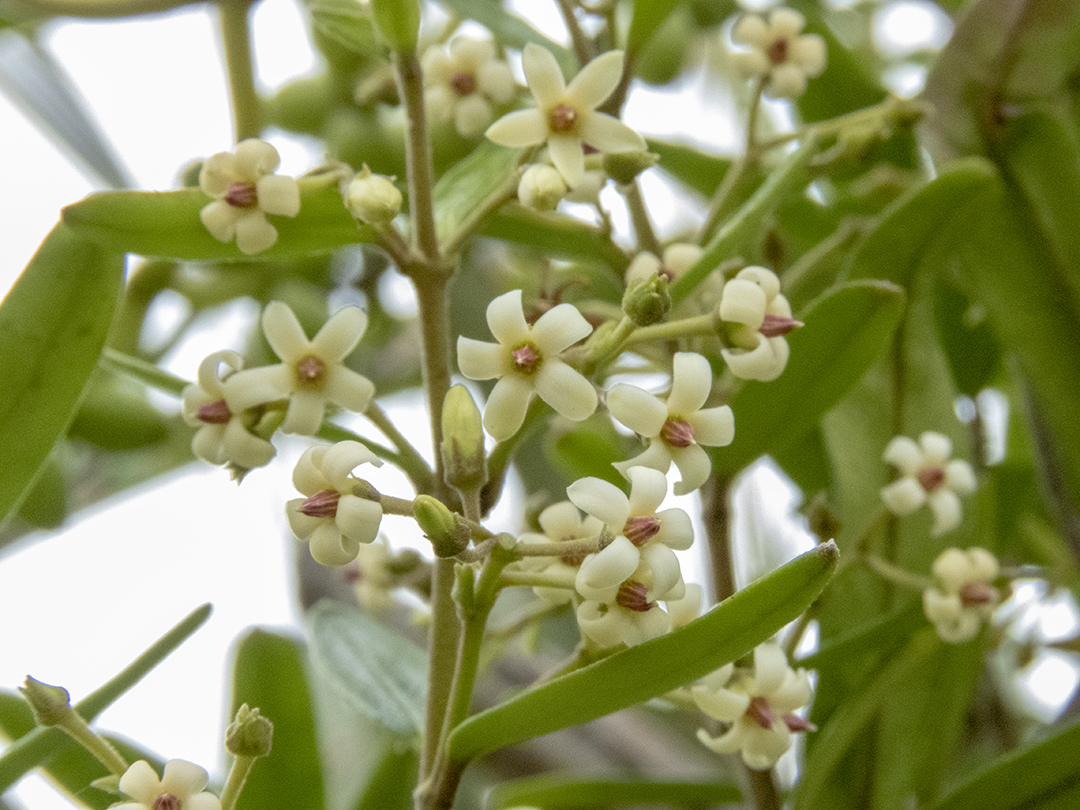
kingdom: Plantae
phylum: Tracheophyta
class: Magnoliopsida
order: Gentianales
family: Apocynaceae
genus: Parsonsia
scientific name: Parsonsia heterophylla
